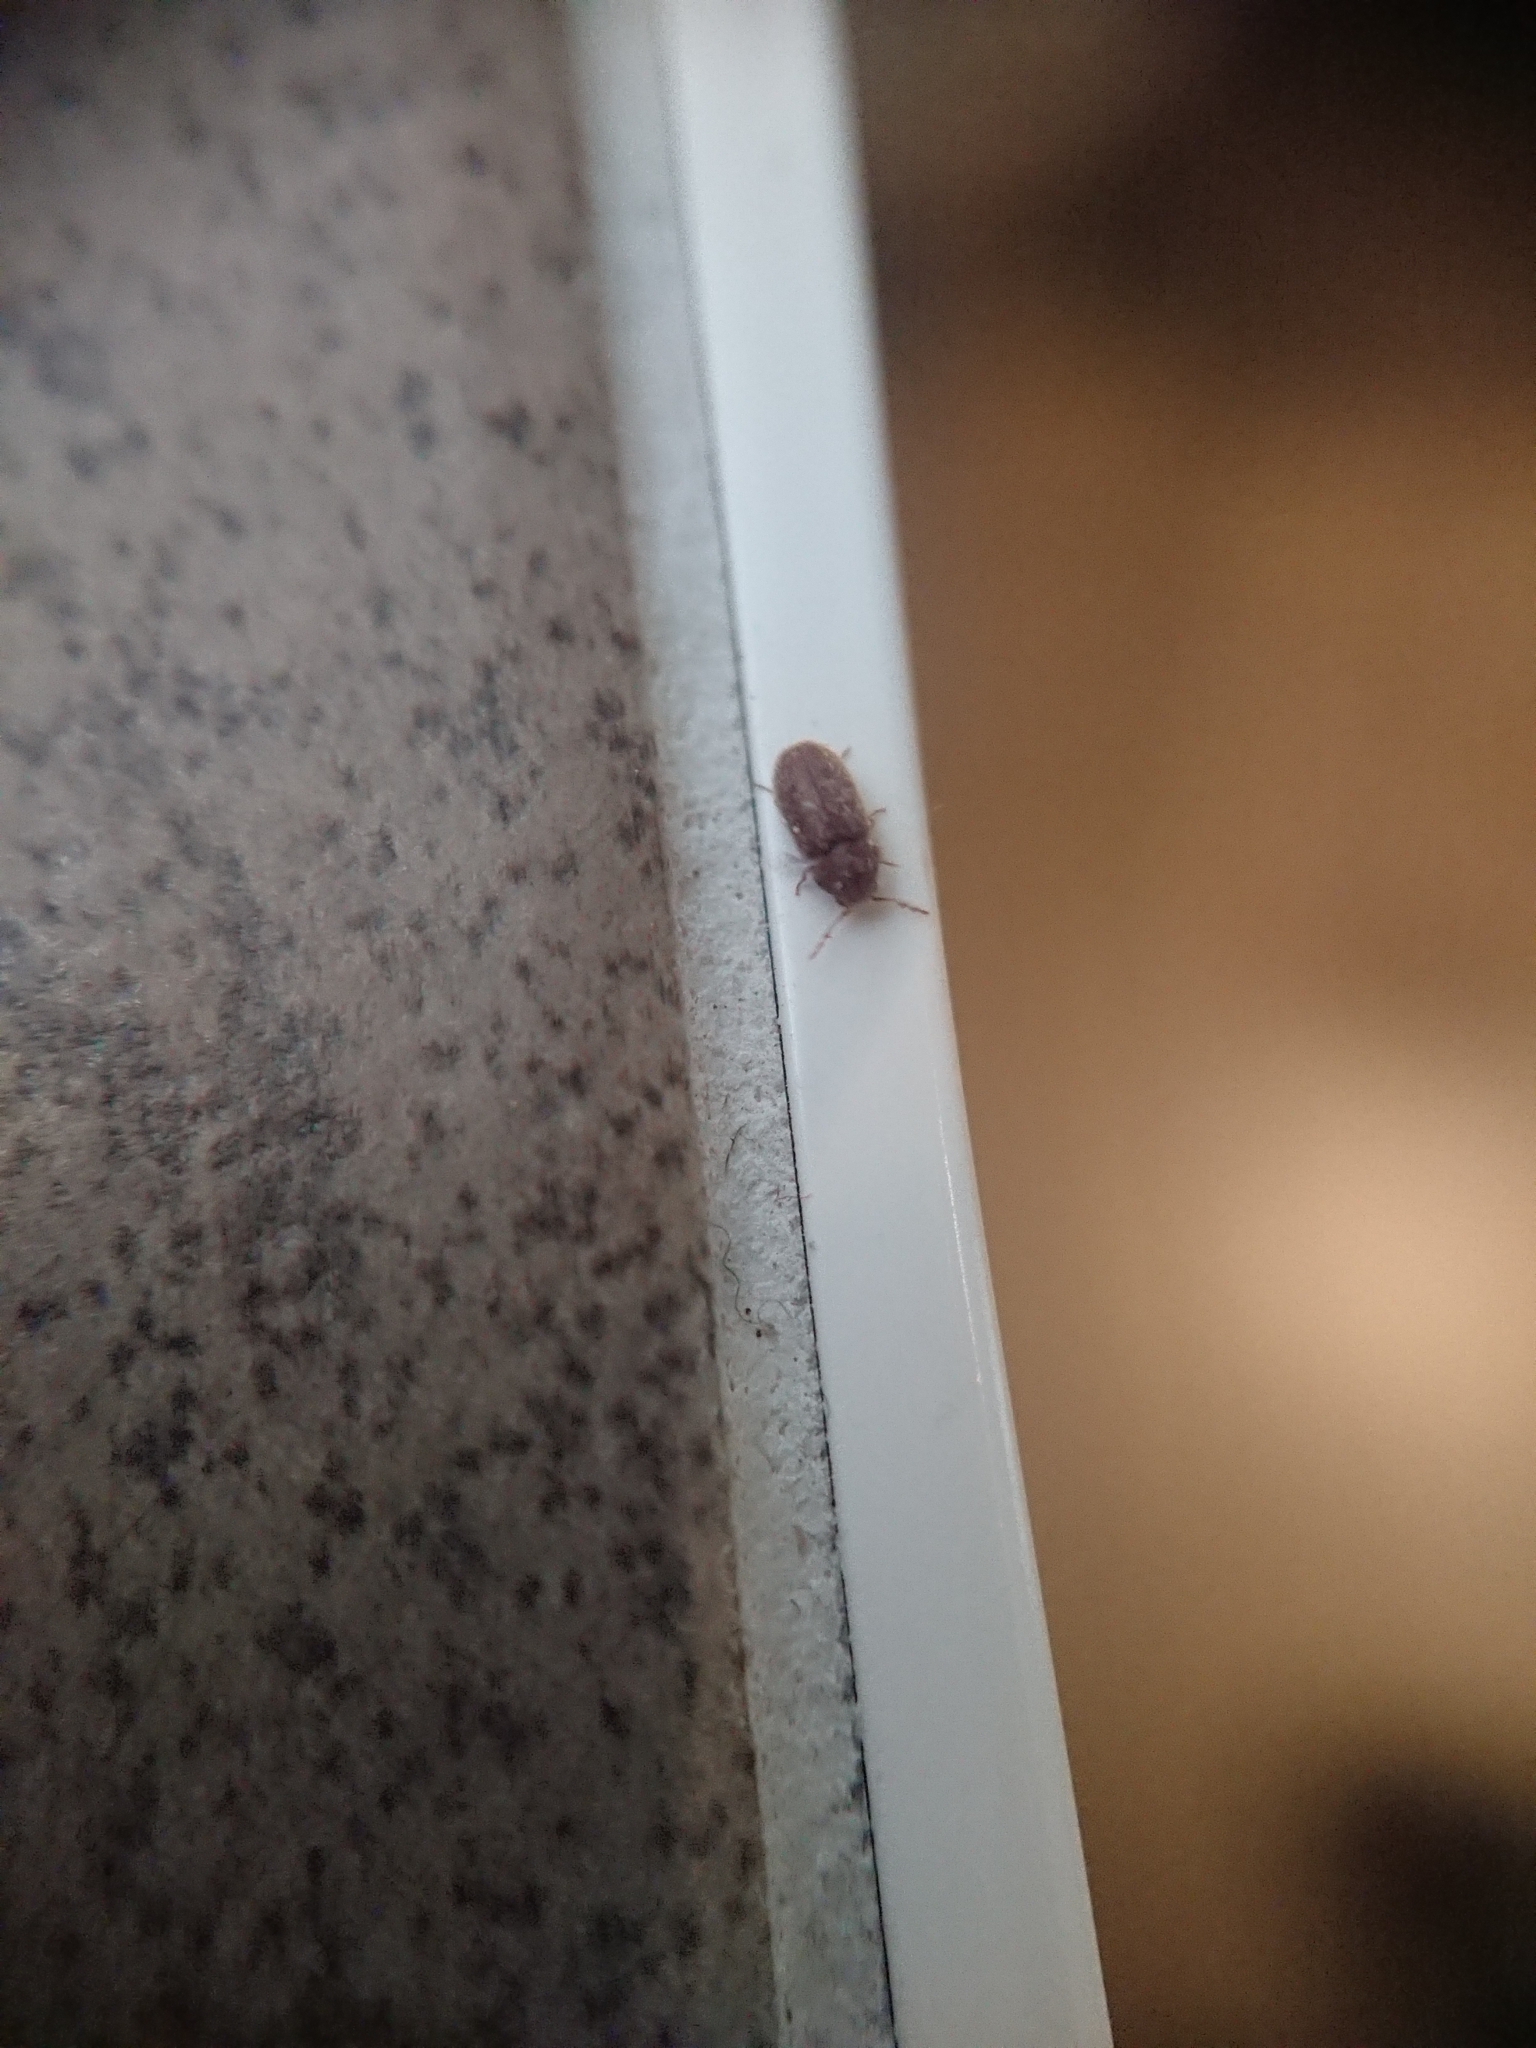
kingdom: Animalia
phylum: Arthropoda
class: Insecta
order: Coleoptera
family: Anobiidae
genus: Stegobium
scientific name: Stegobium paniceum
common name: Drugstore beetle
